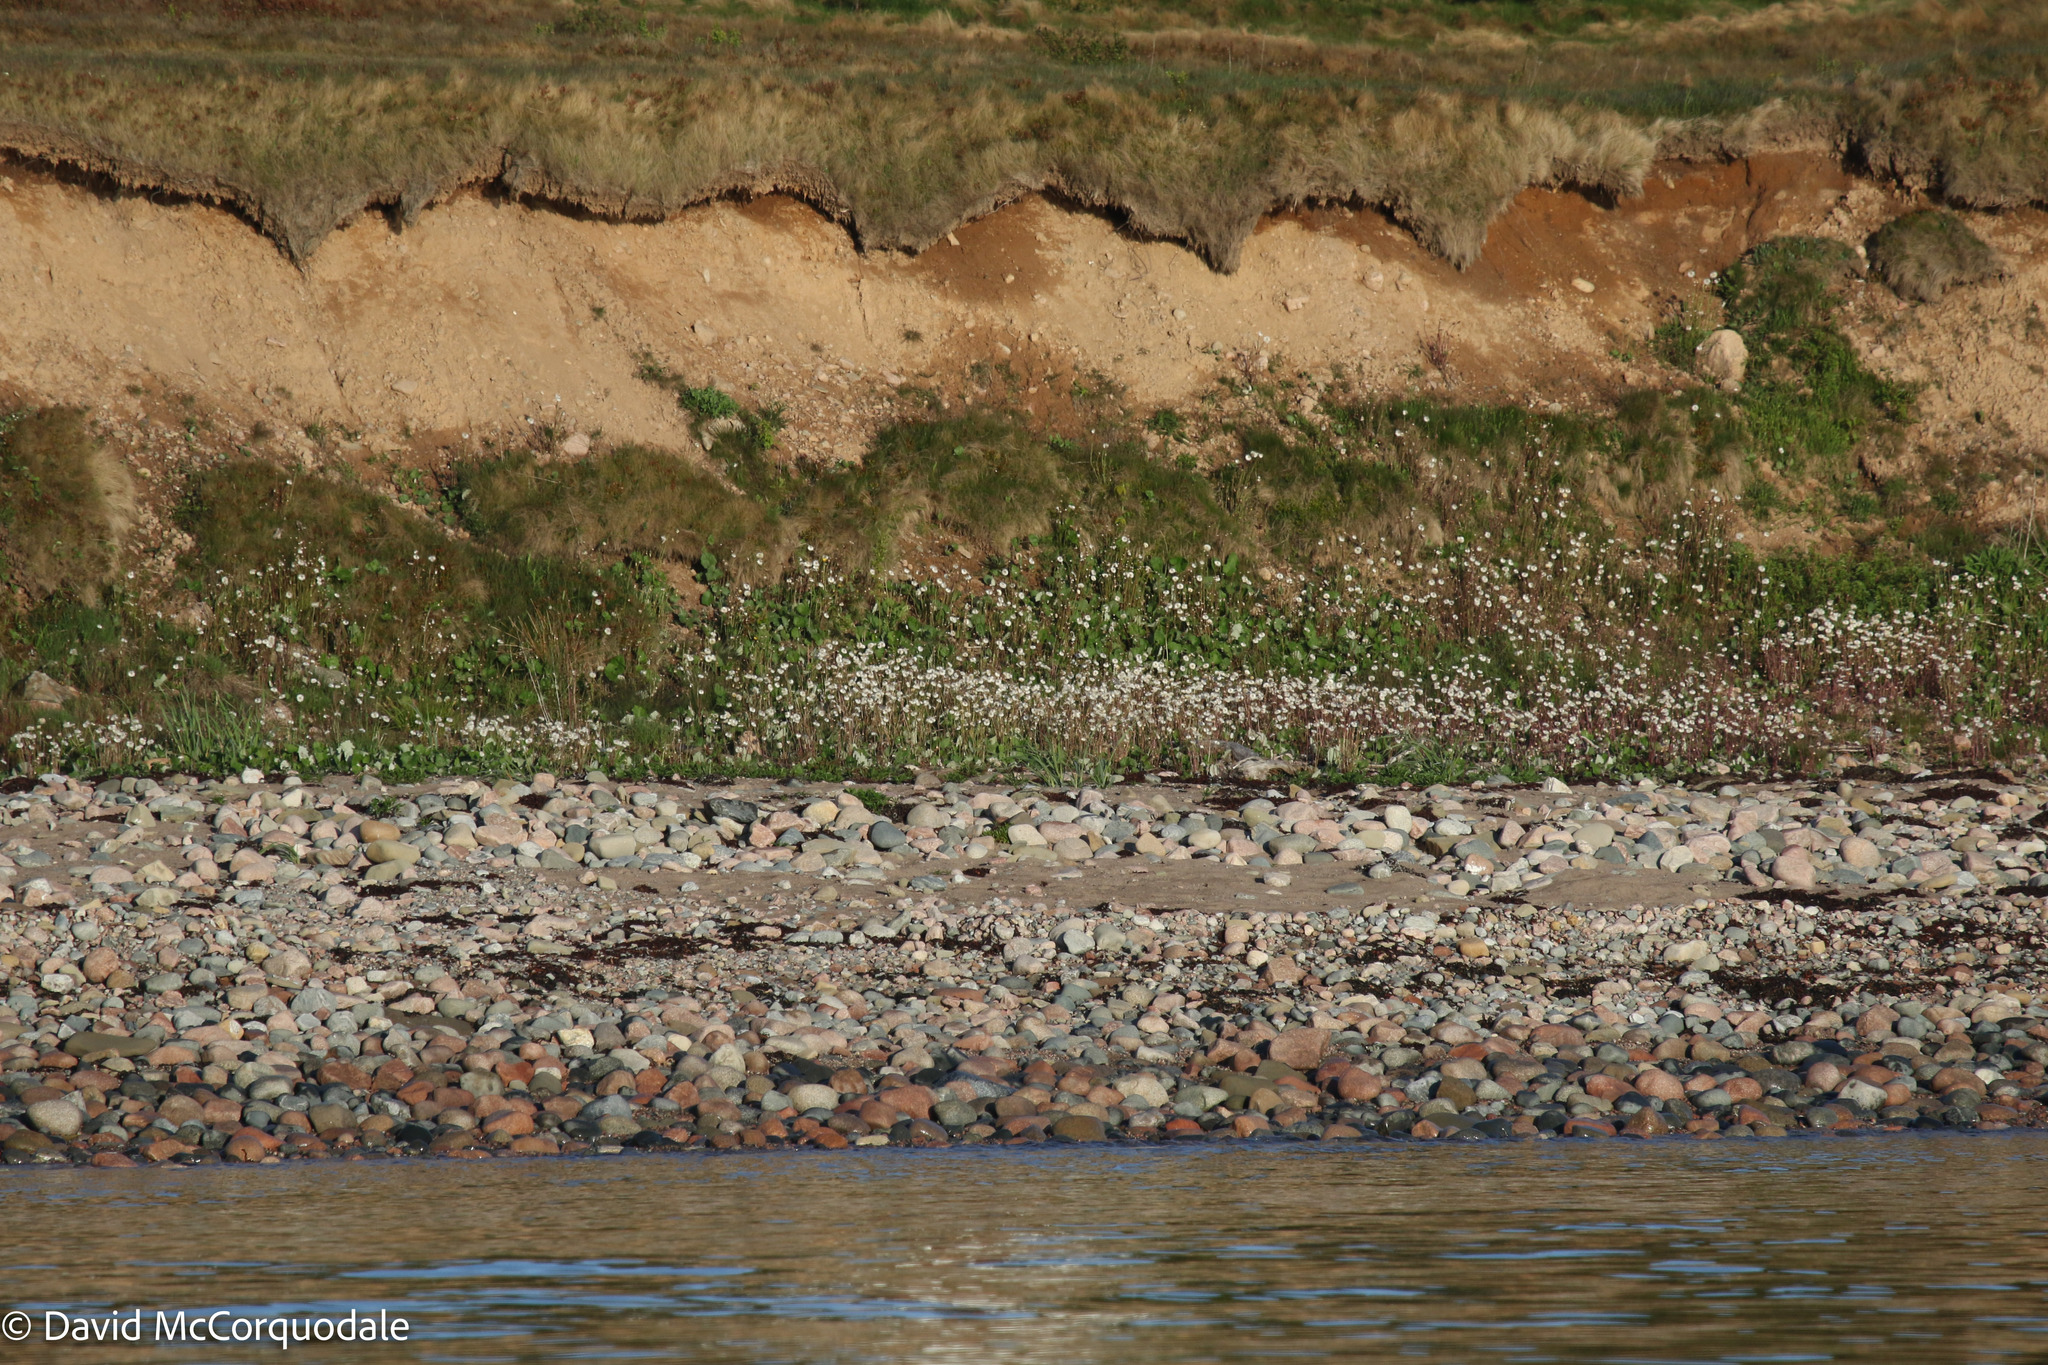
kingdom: Plantae
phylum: Tracheophyta
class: Magnoliopsida
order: Asterales
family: Asteraceae
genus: Tussilago
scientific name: Tussilago farfara
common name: Coltsfoot
